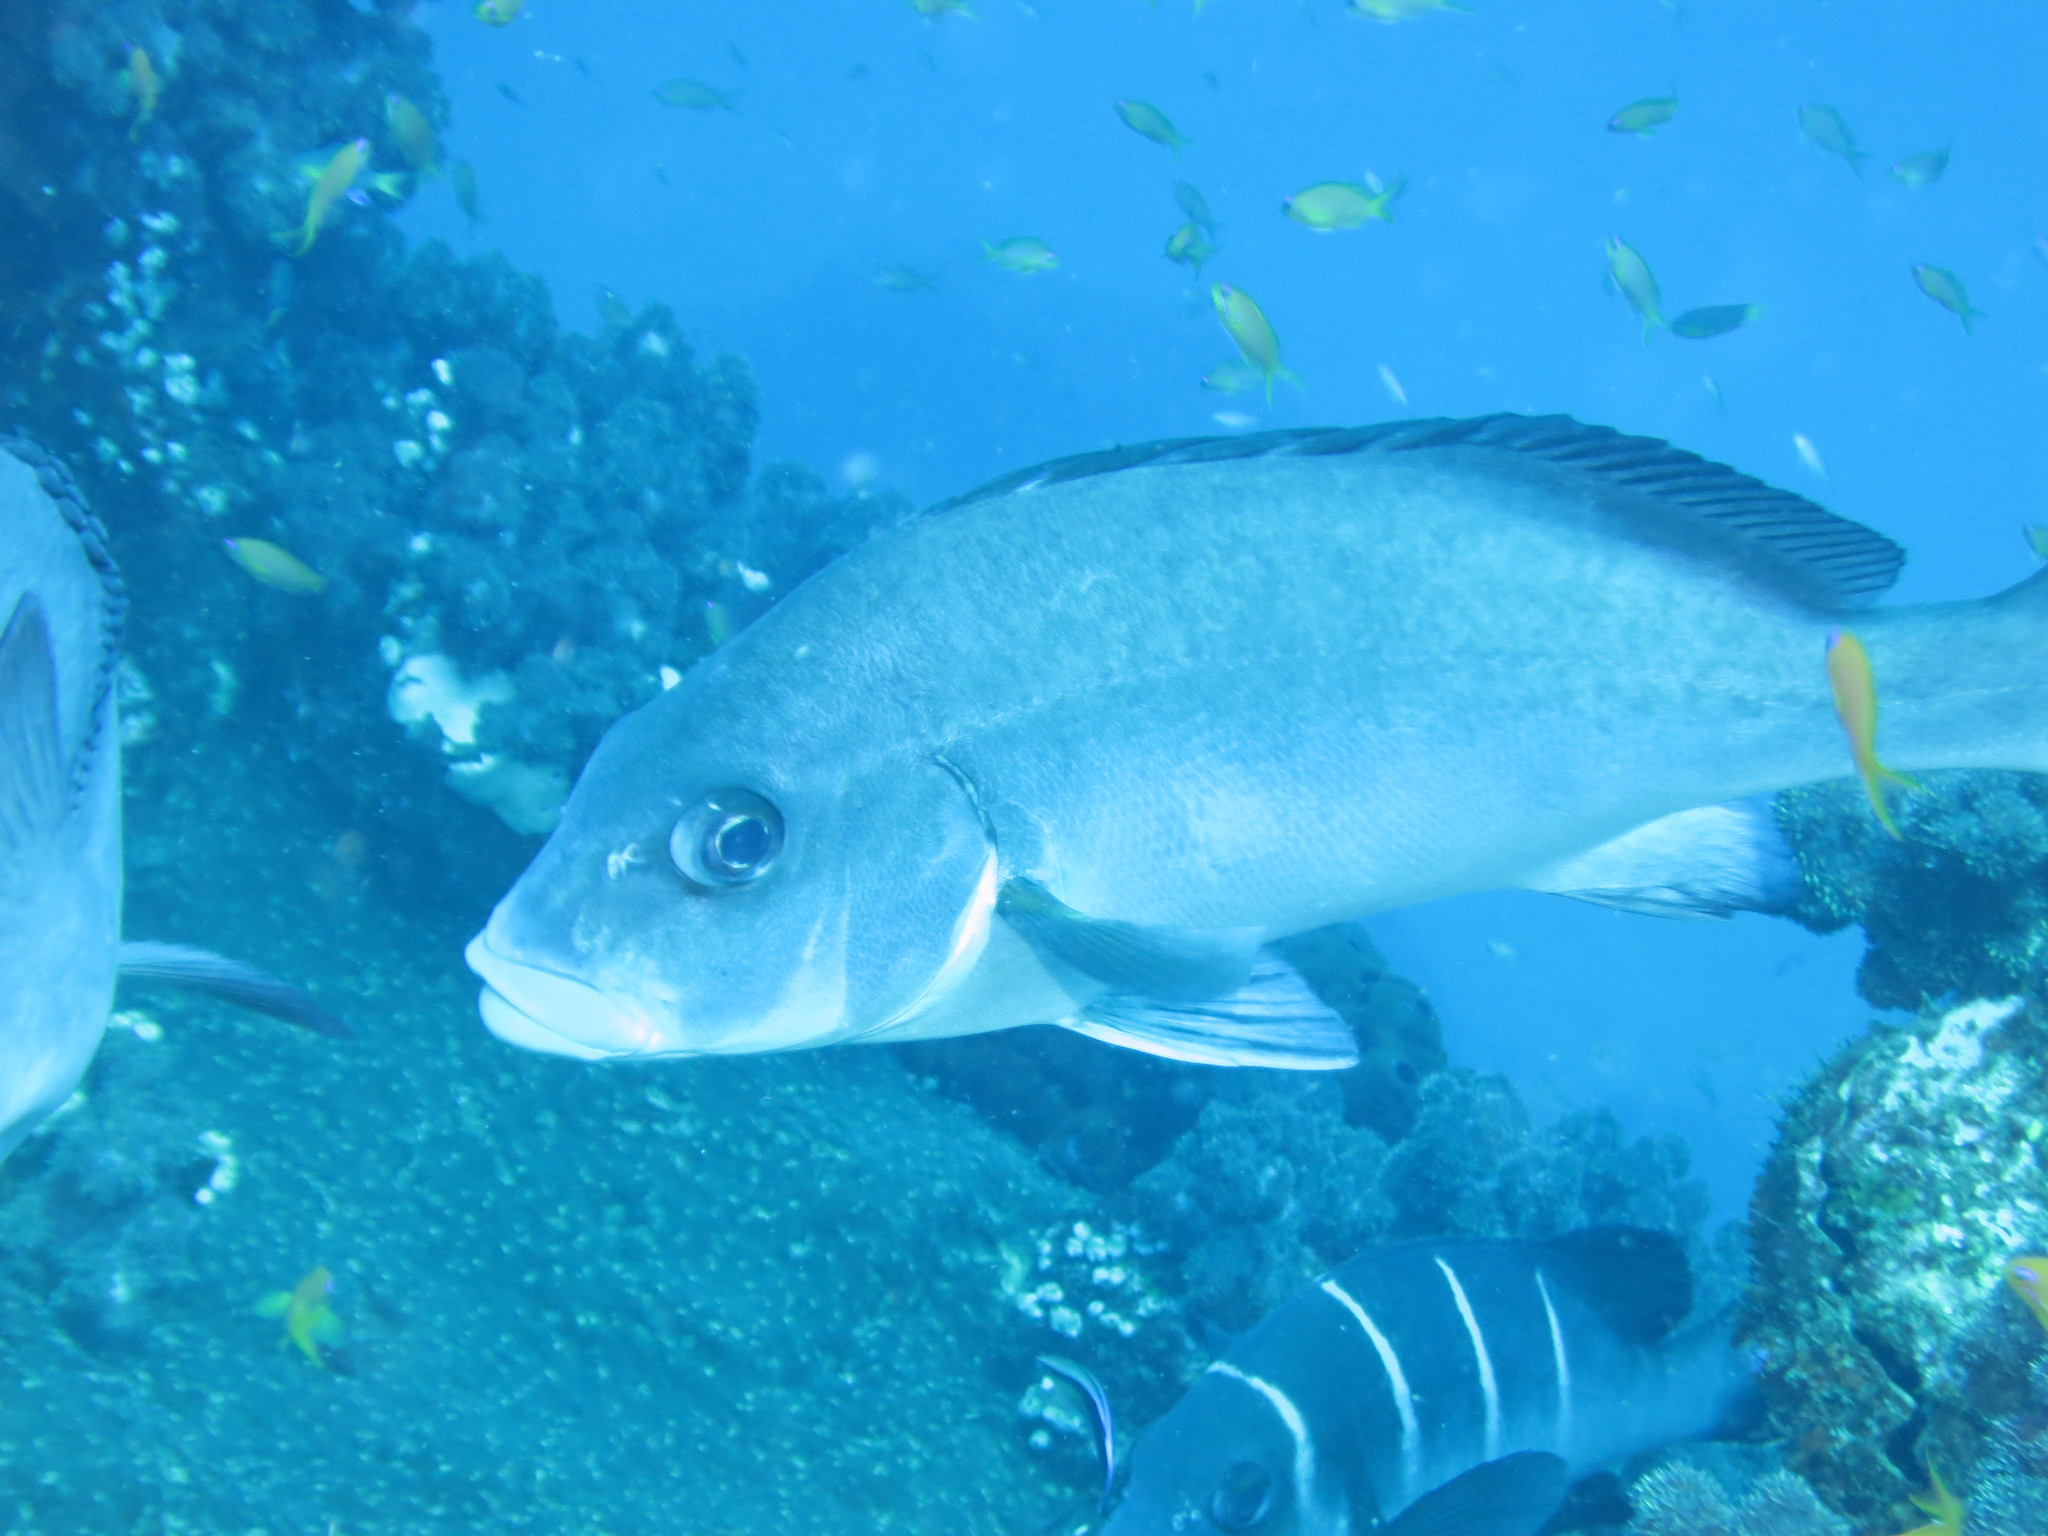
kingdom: Animalia
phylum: Chordata
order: Perciformes
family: Haemulidae
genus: Plectorhinchus
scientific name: Plectorhinchus playfairi
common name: Whitebarred rubberlip
